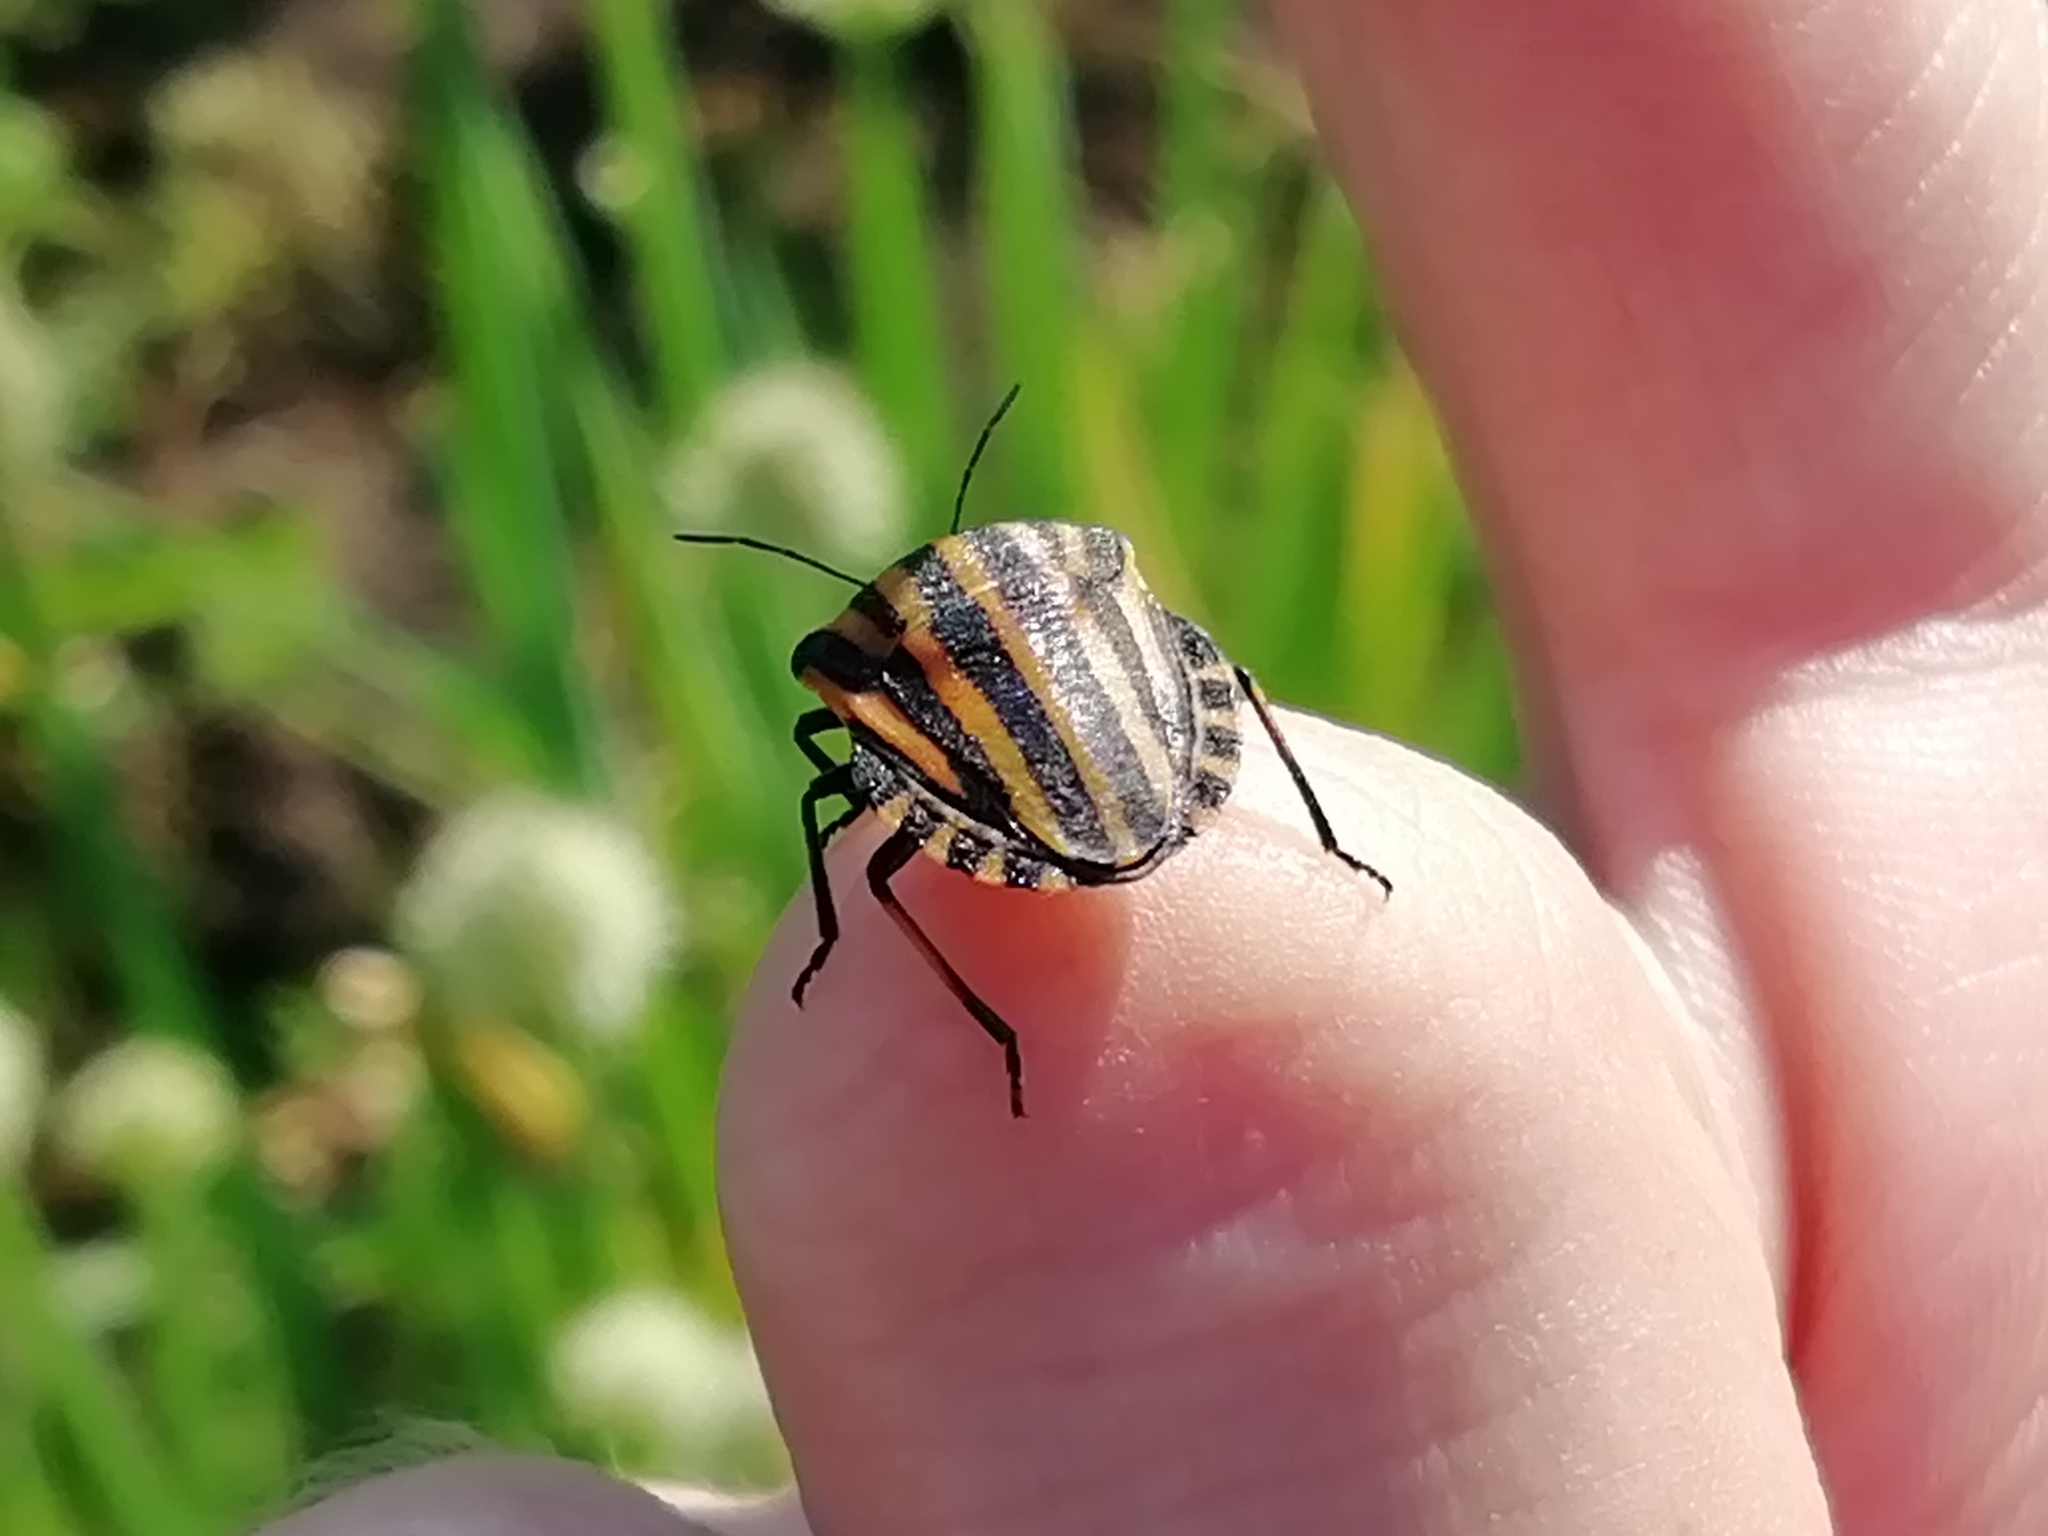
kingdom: Animalia
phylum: Arthropoda
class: Insecta
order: Hemiptera
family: Pentatomidae
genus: Graphosoma
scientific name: Graphosoma italicum
